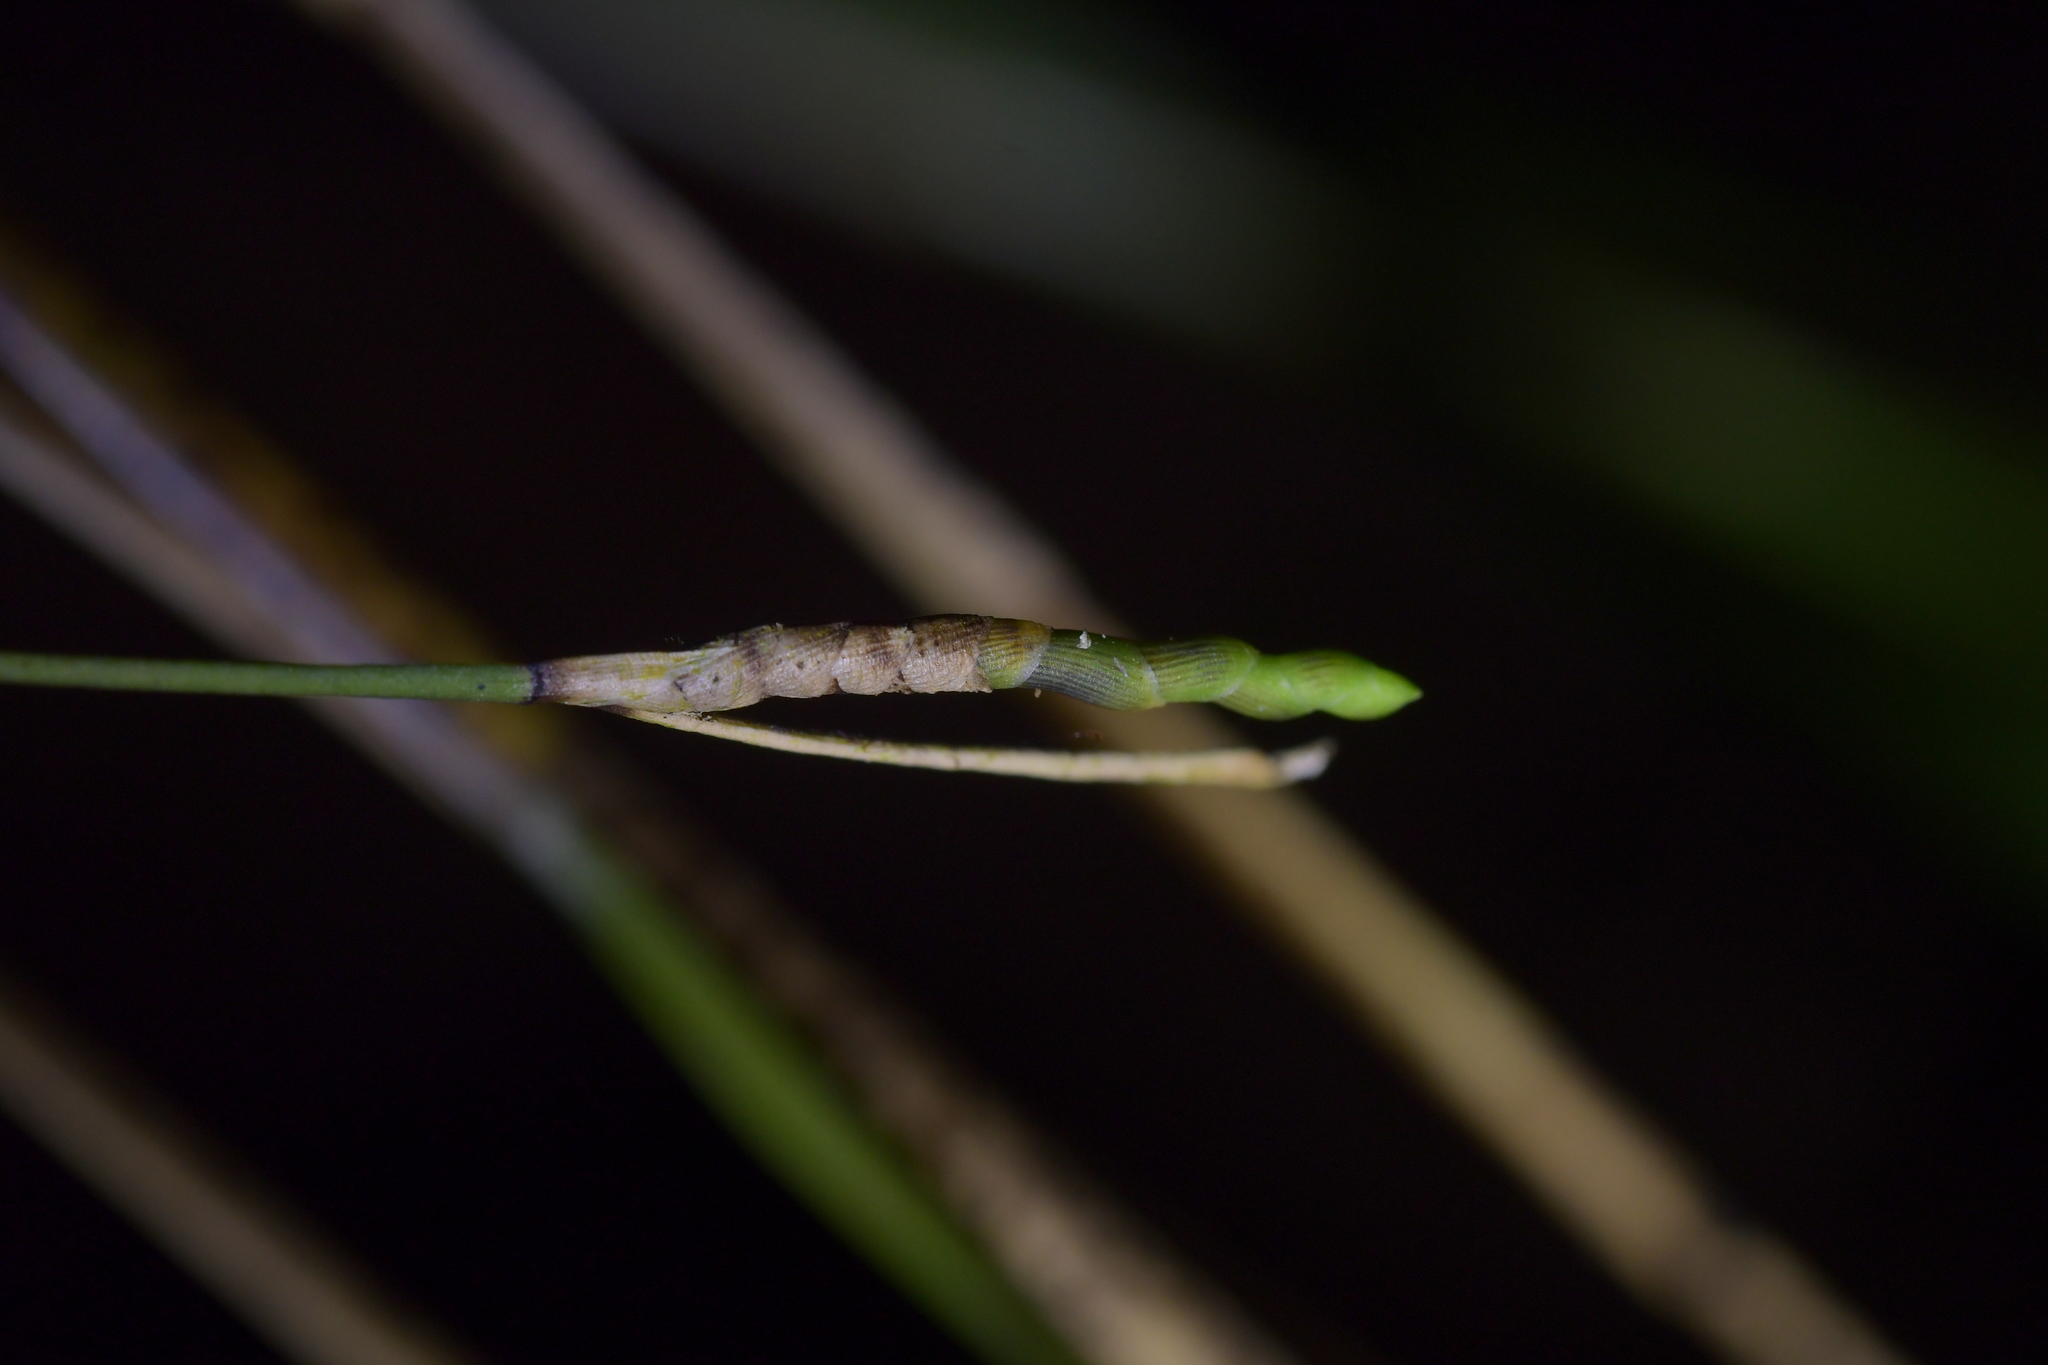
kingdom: Plantae
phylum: Tracheophyta
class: Liliopsida
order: Asparagales
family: Orchidaceae
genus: Earina
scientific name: Earina mucronata
